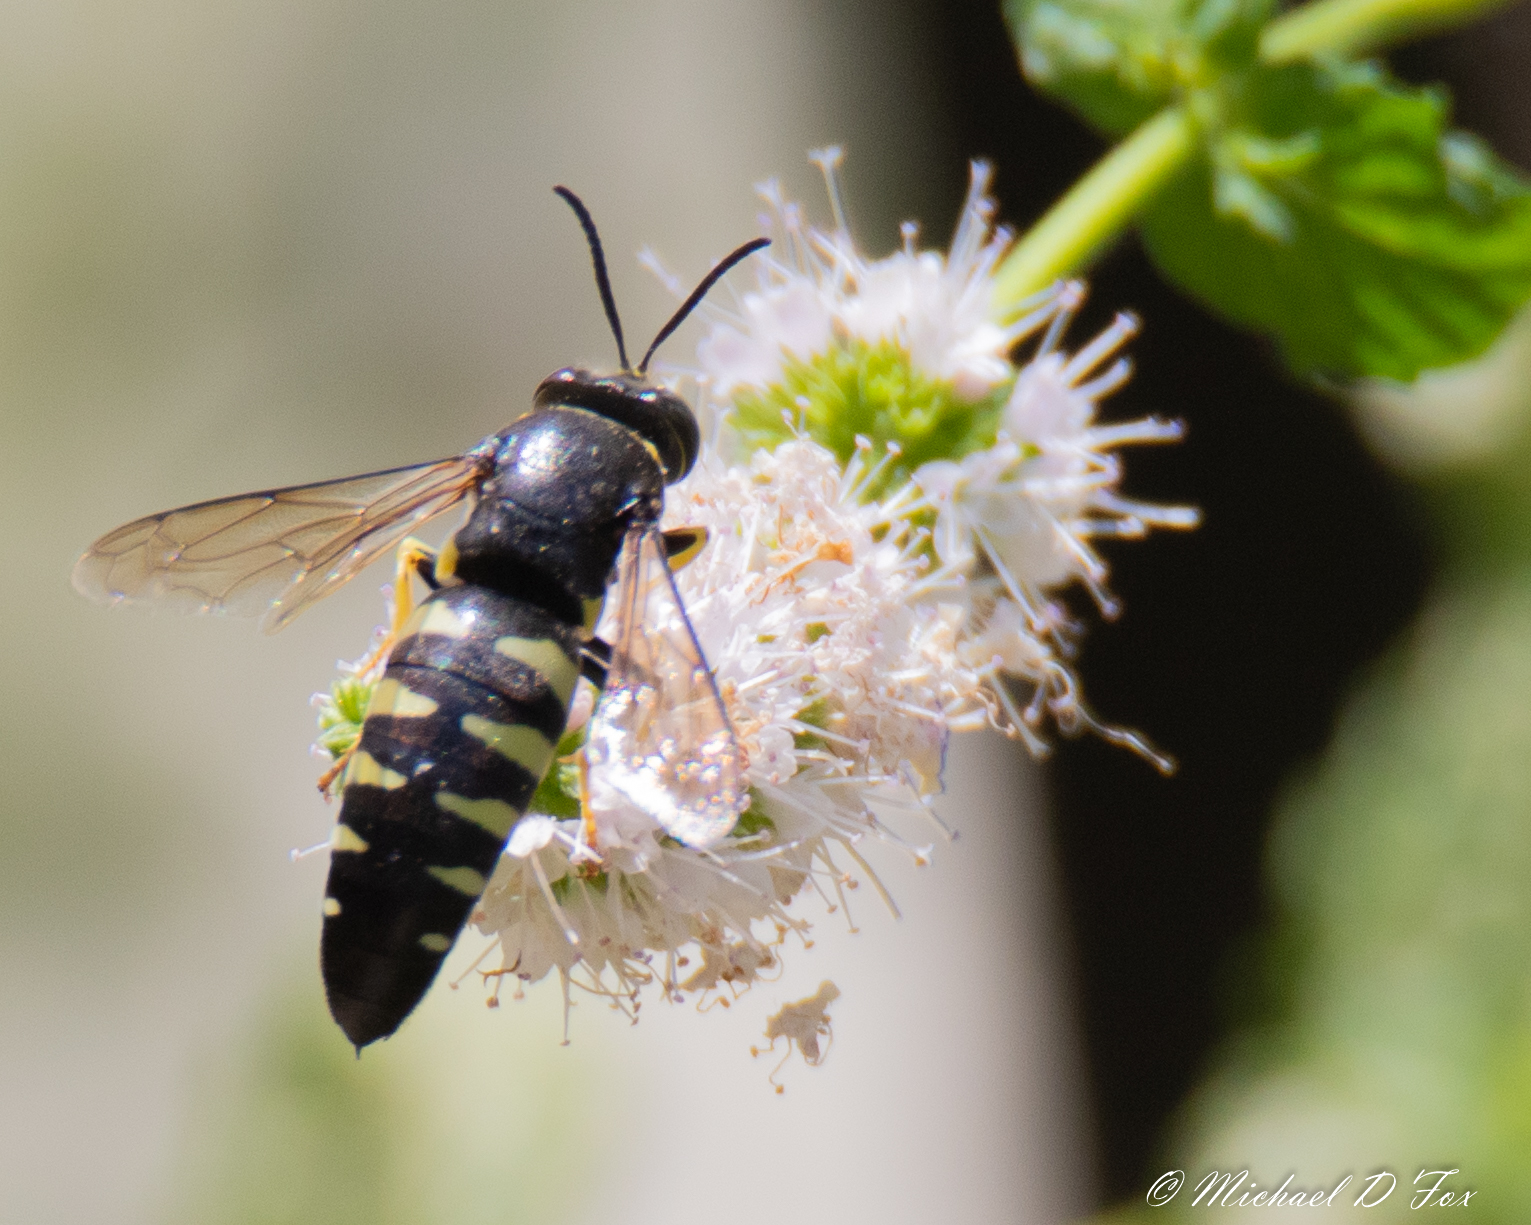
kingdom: Animalia
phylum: Arthropoda
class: Insecta
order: Hymenoptera
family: Crabronidae
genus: Bicyrtes
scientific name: Bicyrtes quadrifasciatus
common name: Four-banded stink bug hunter wasp
